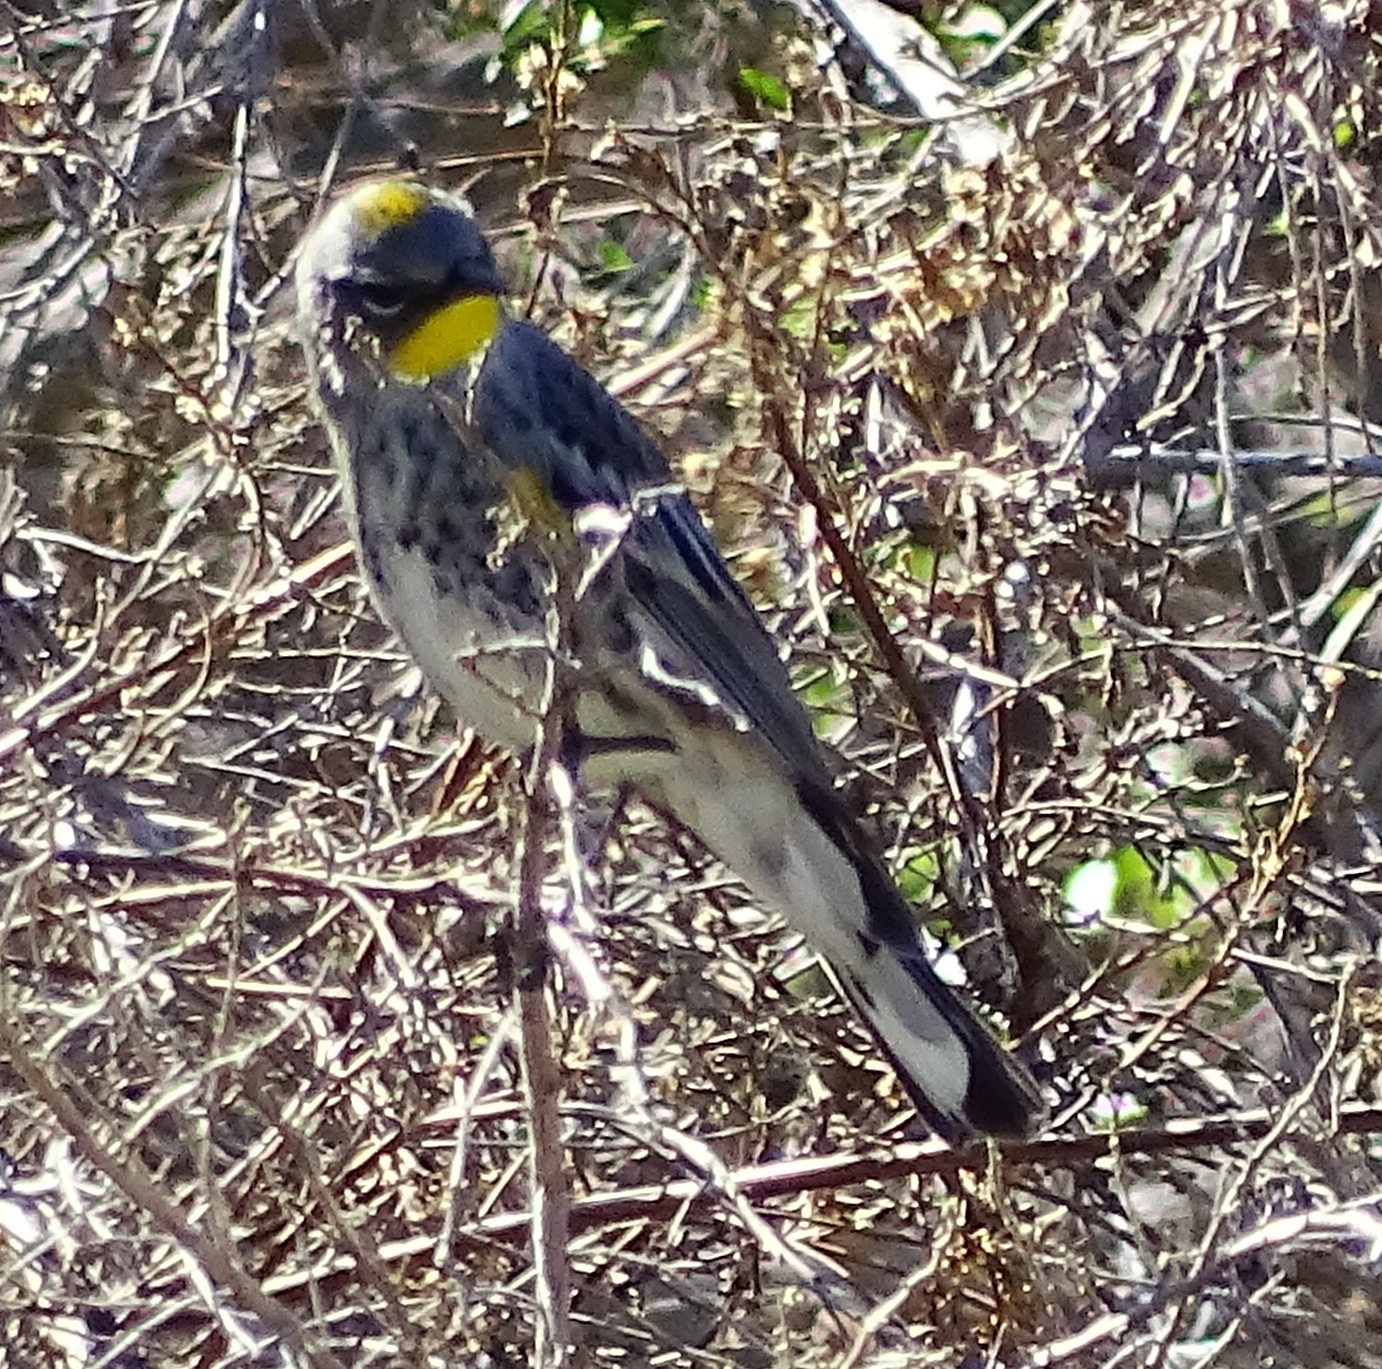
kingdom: Animalia
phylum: Chordata
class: Aves
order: Passeriformes
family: Parulidae
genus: Setophaga
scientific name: Setophaga coronata
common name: Myrtle warbler
